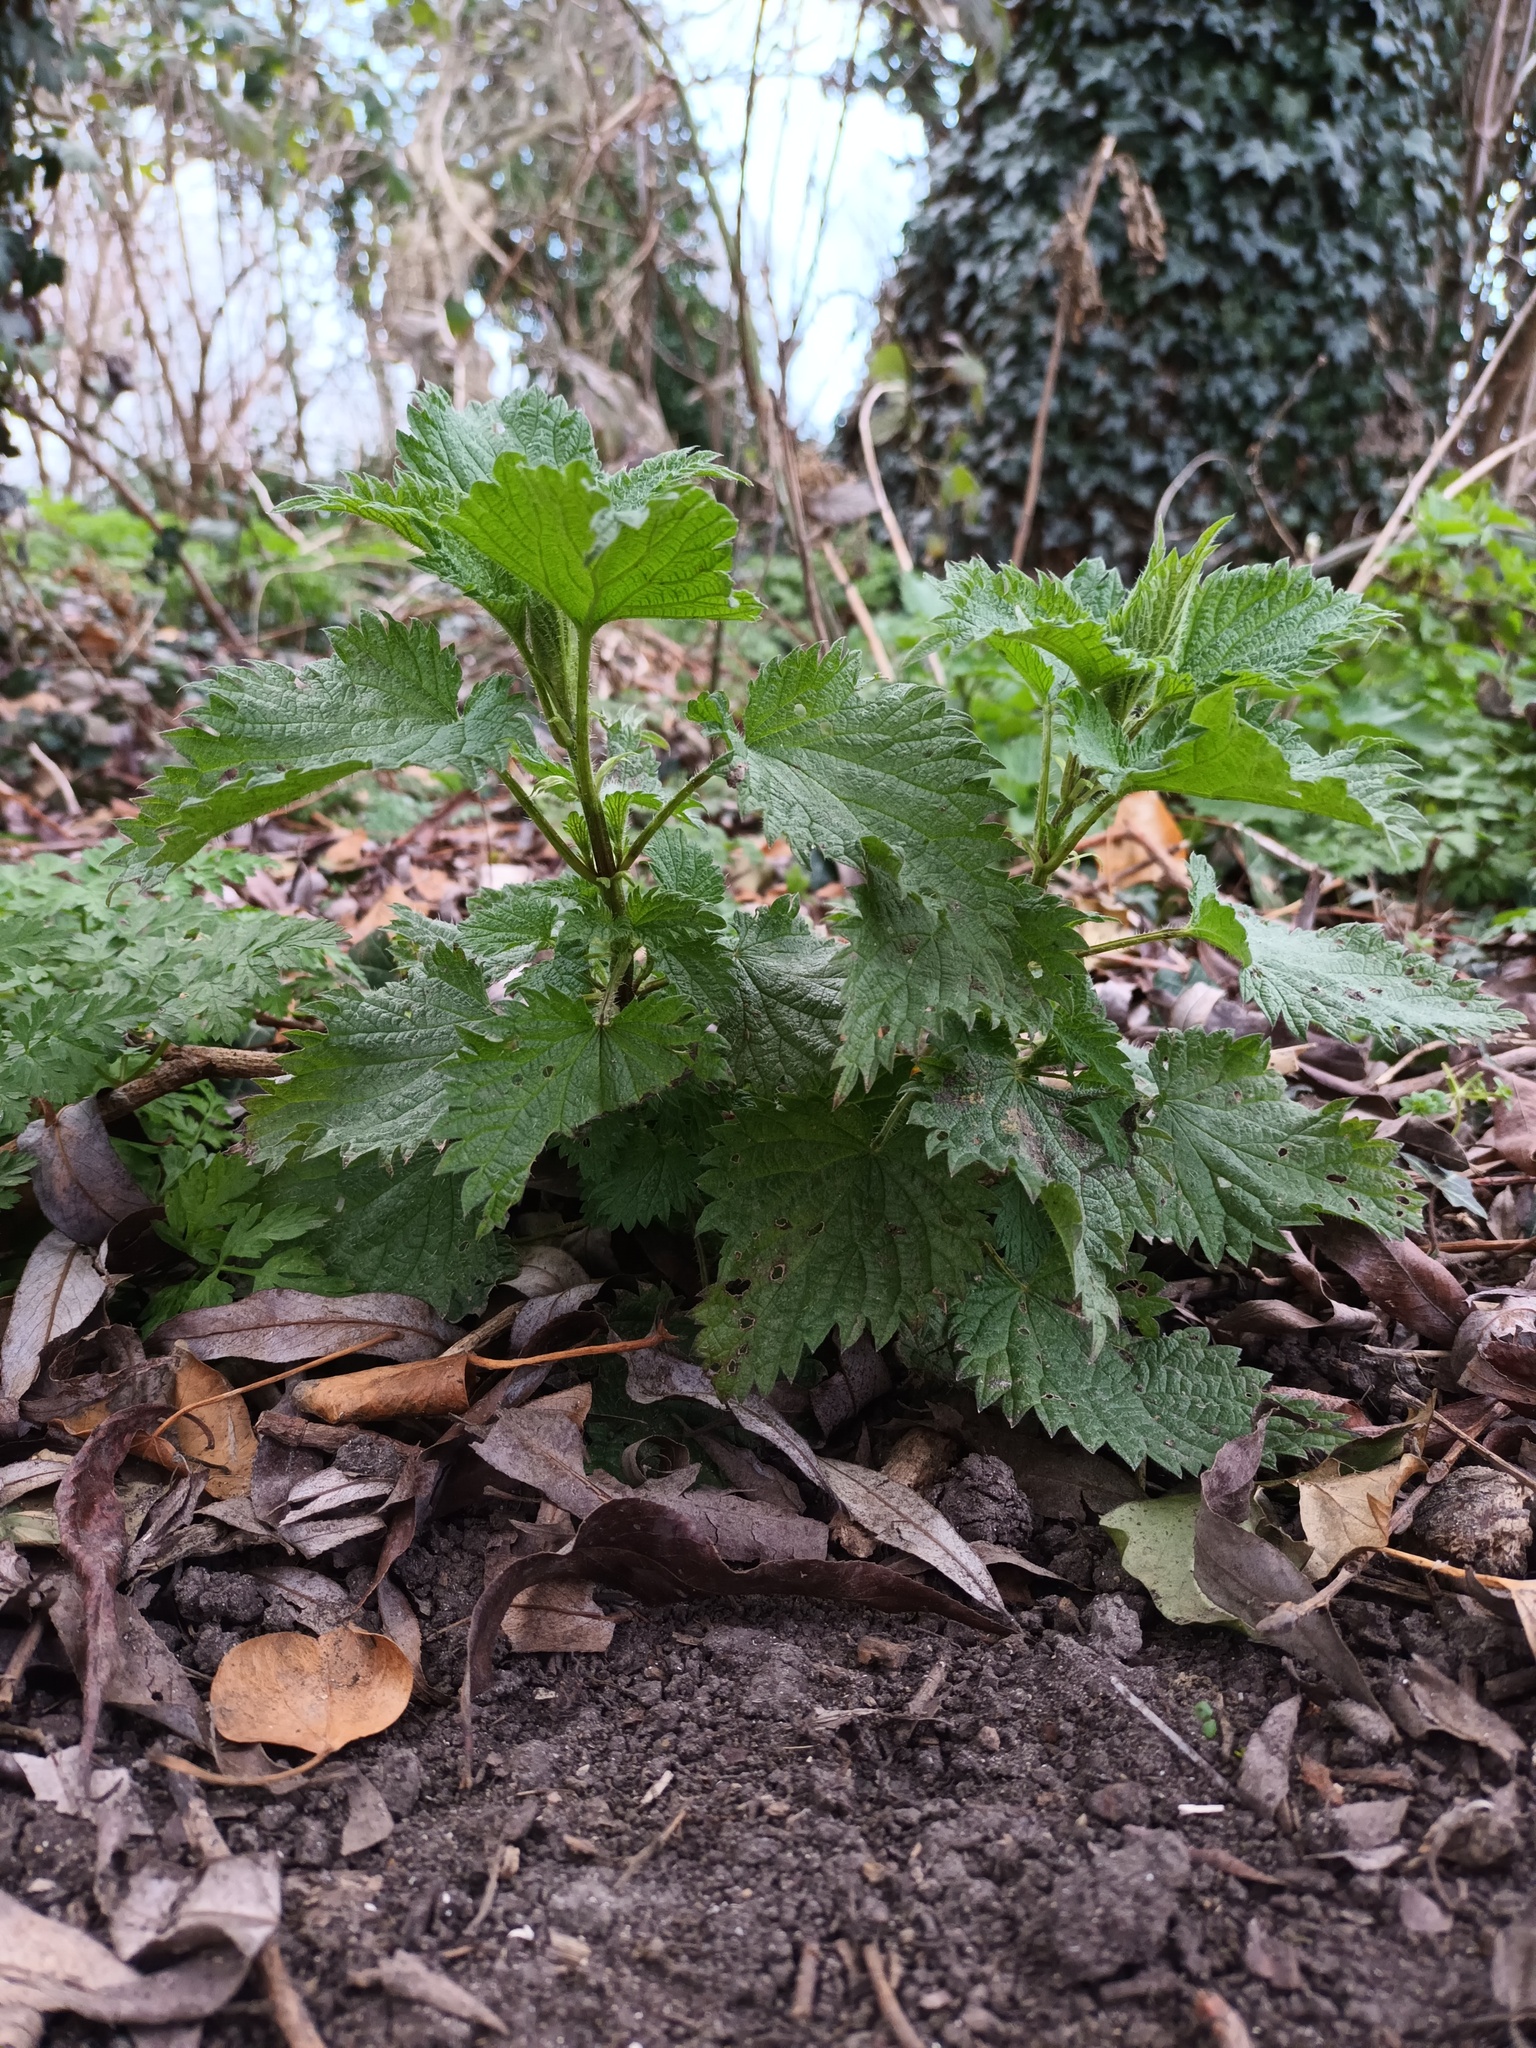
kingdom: Plantae
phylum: Tracheophyta
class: Magnoliopsida
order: Rosales
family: Urticaceae
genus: Urtica
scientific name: Urtica dioica
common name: Common nettle
